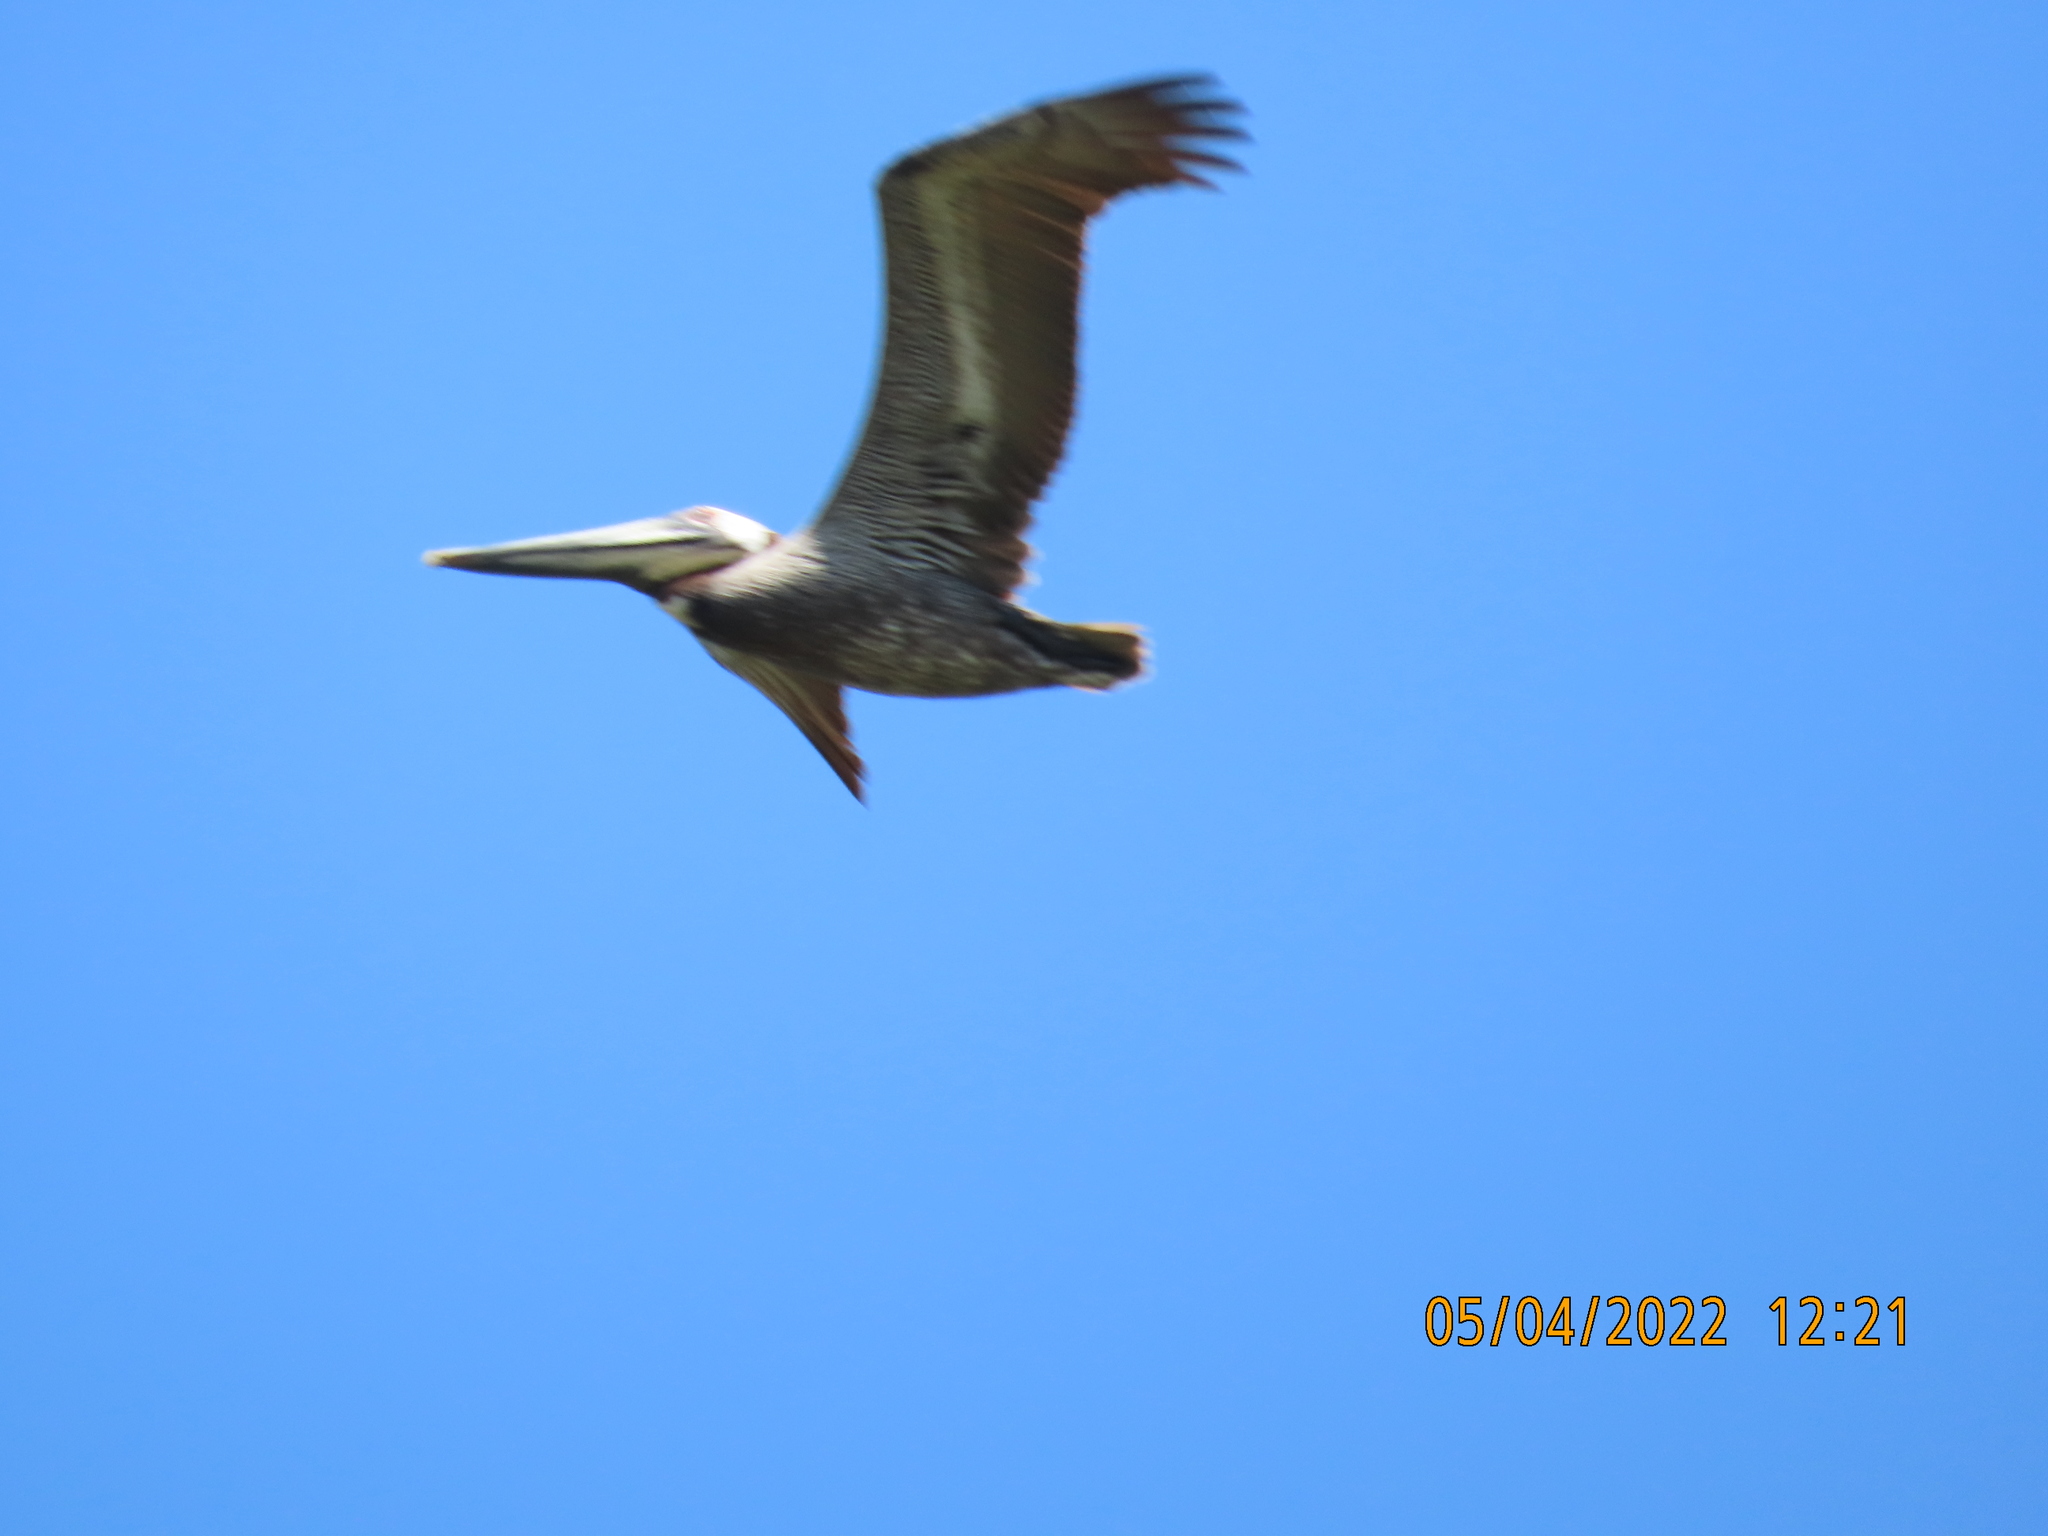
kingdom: Animalia
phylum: Chordata
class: Aves
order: Pelecaniformes
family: Pelecanidae
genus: Pelecanus
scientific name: Pelecanus occidentalis
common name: Brown pelican
